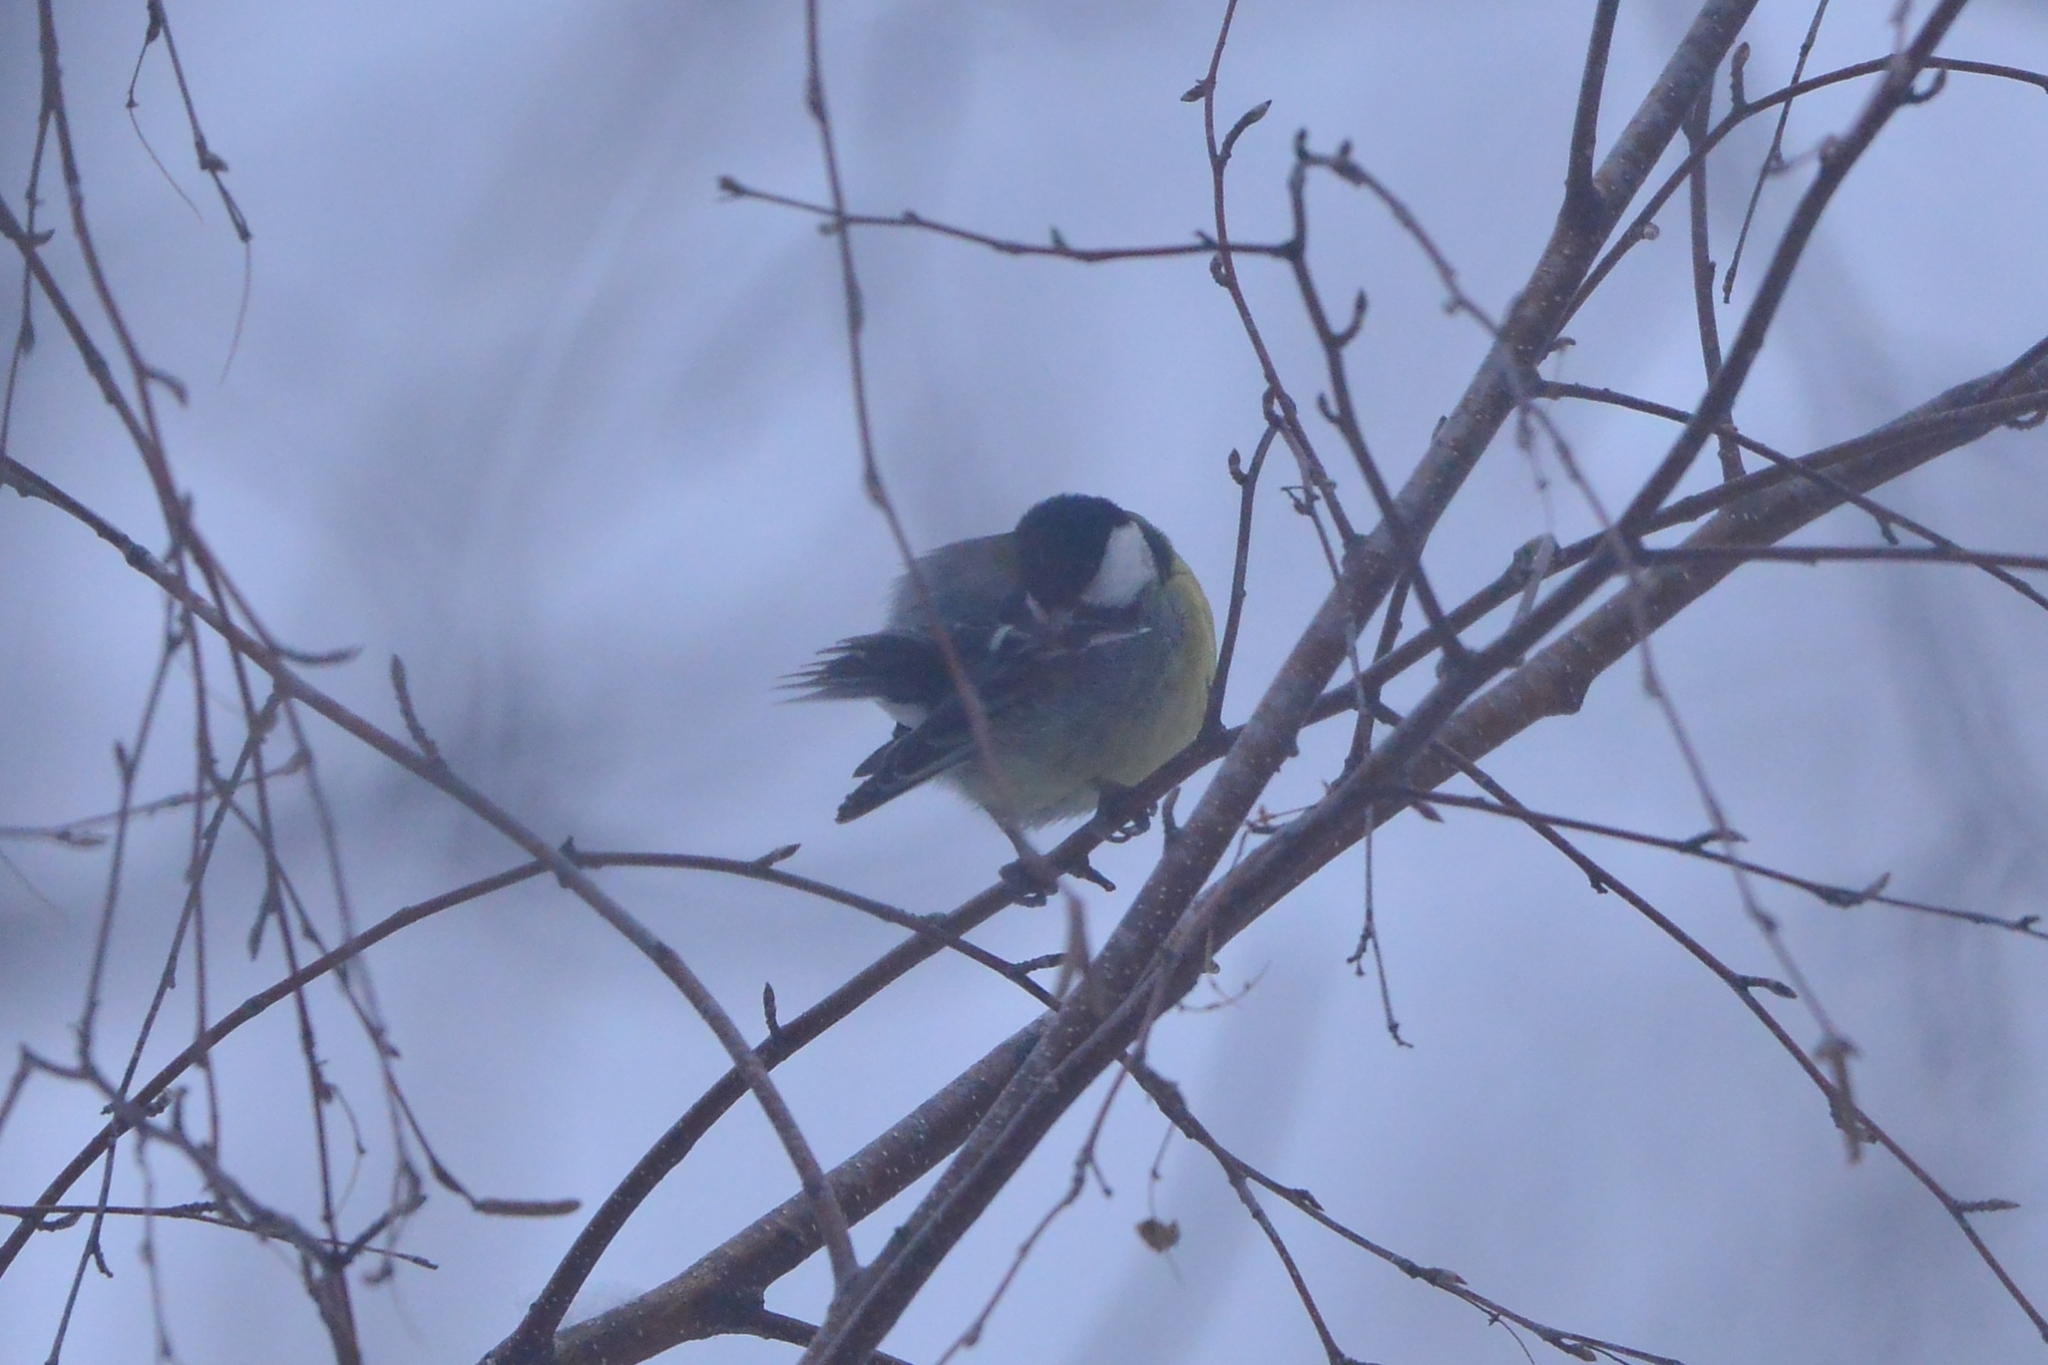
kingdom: Animalia
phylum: Chordata
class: Aves
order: Passeriformes
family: Paridae
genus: Parus
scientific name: Parus major
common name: Great tit
